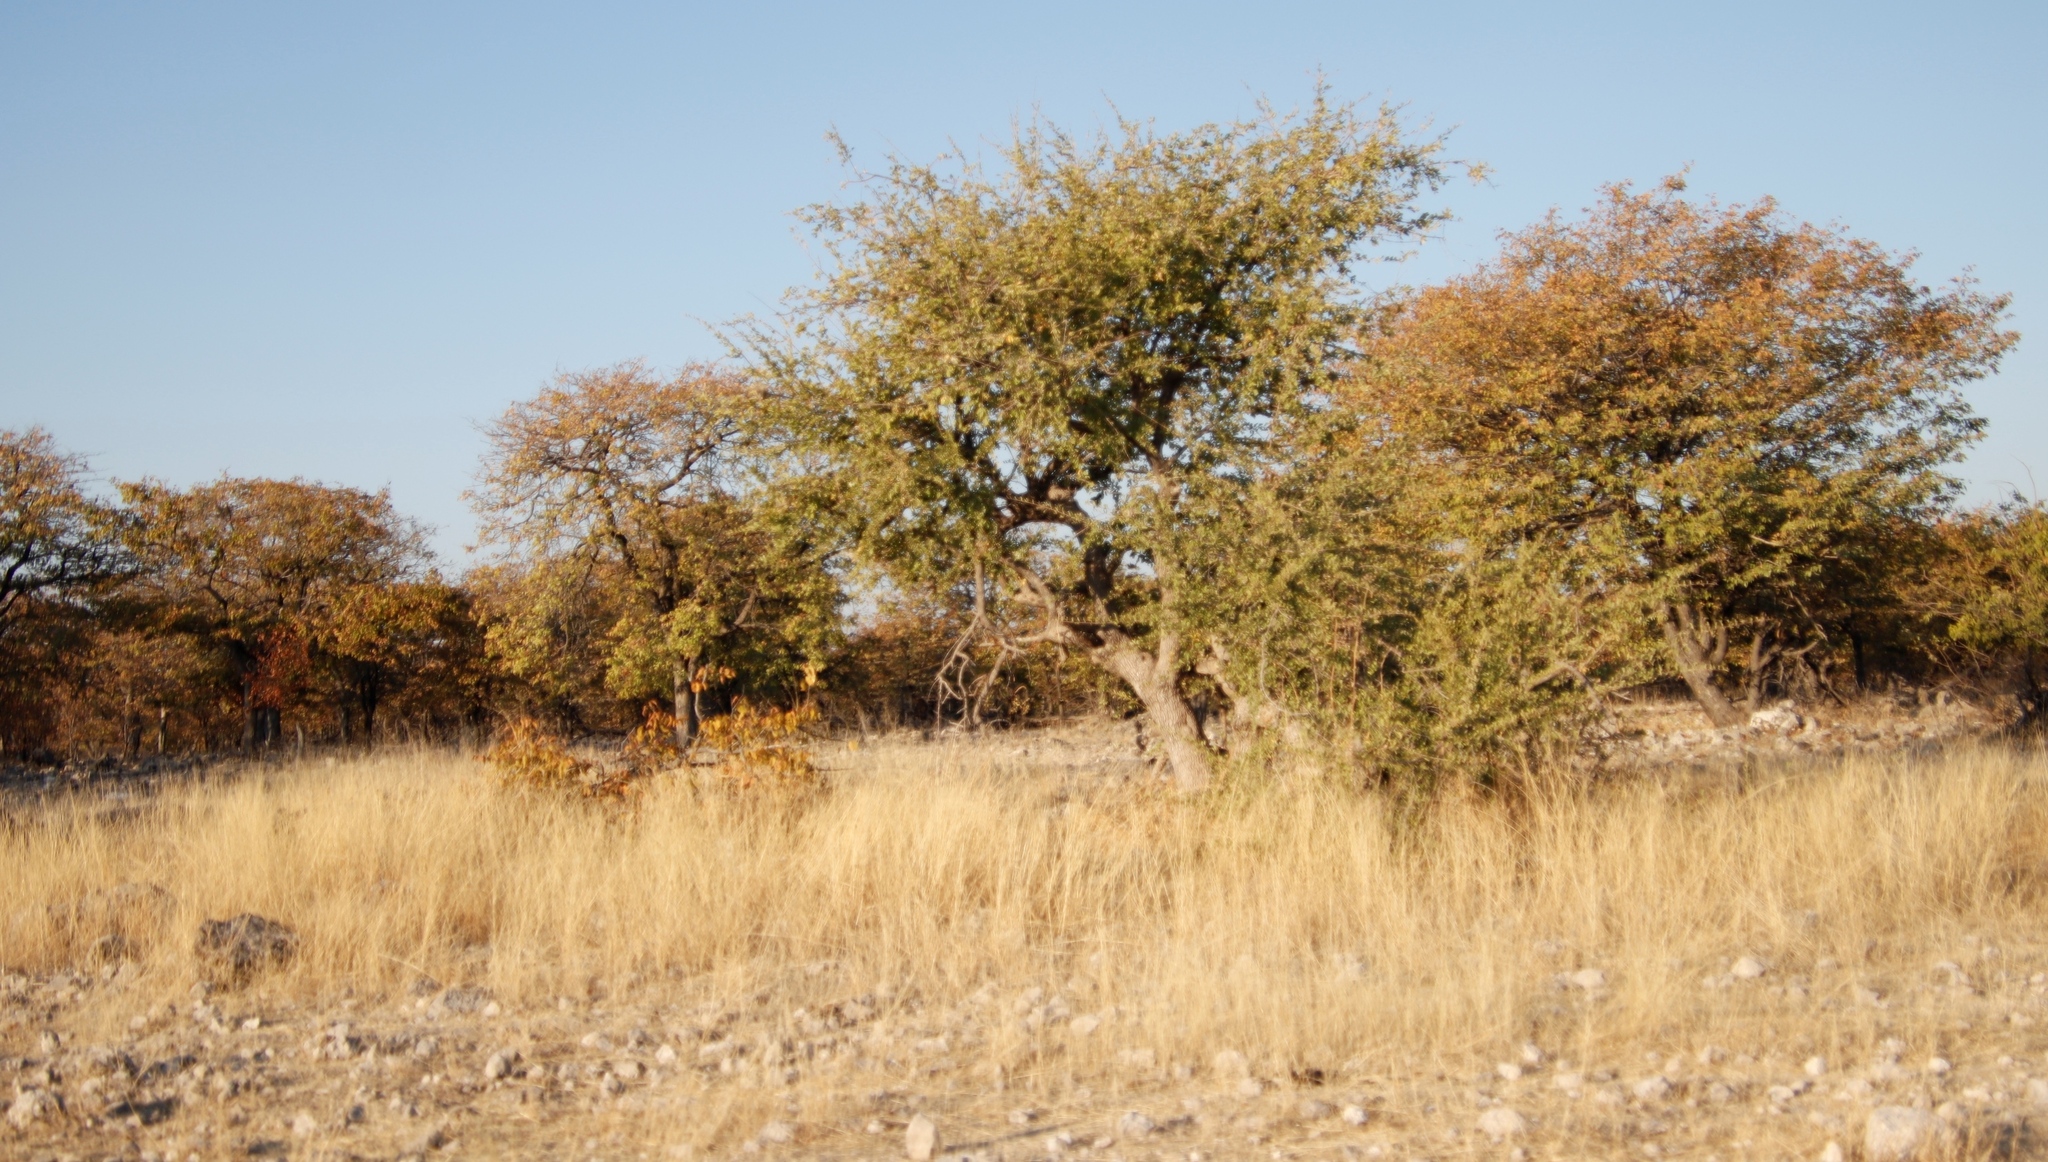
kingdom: Plantae
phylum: Tracheophyta
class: Magnoliopsida
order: Myrtales
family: Combretaceae
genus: Combretum
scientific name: Combretum imberbe
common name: Leadwood
